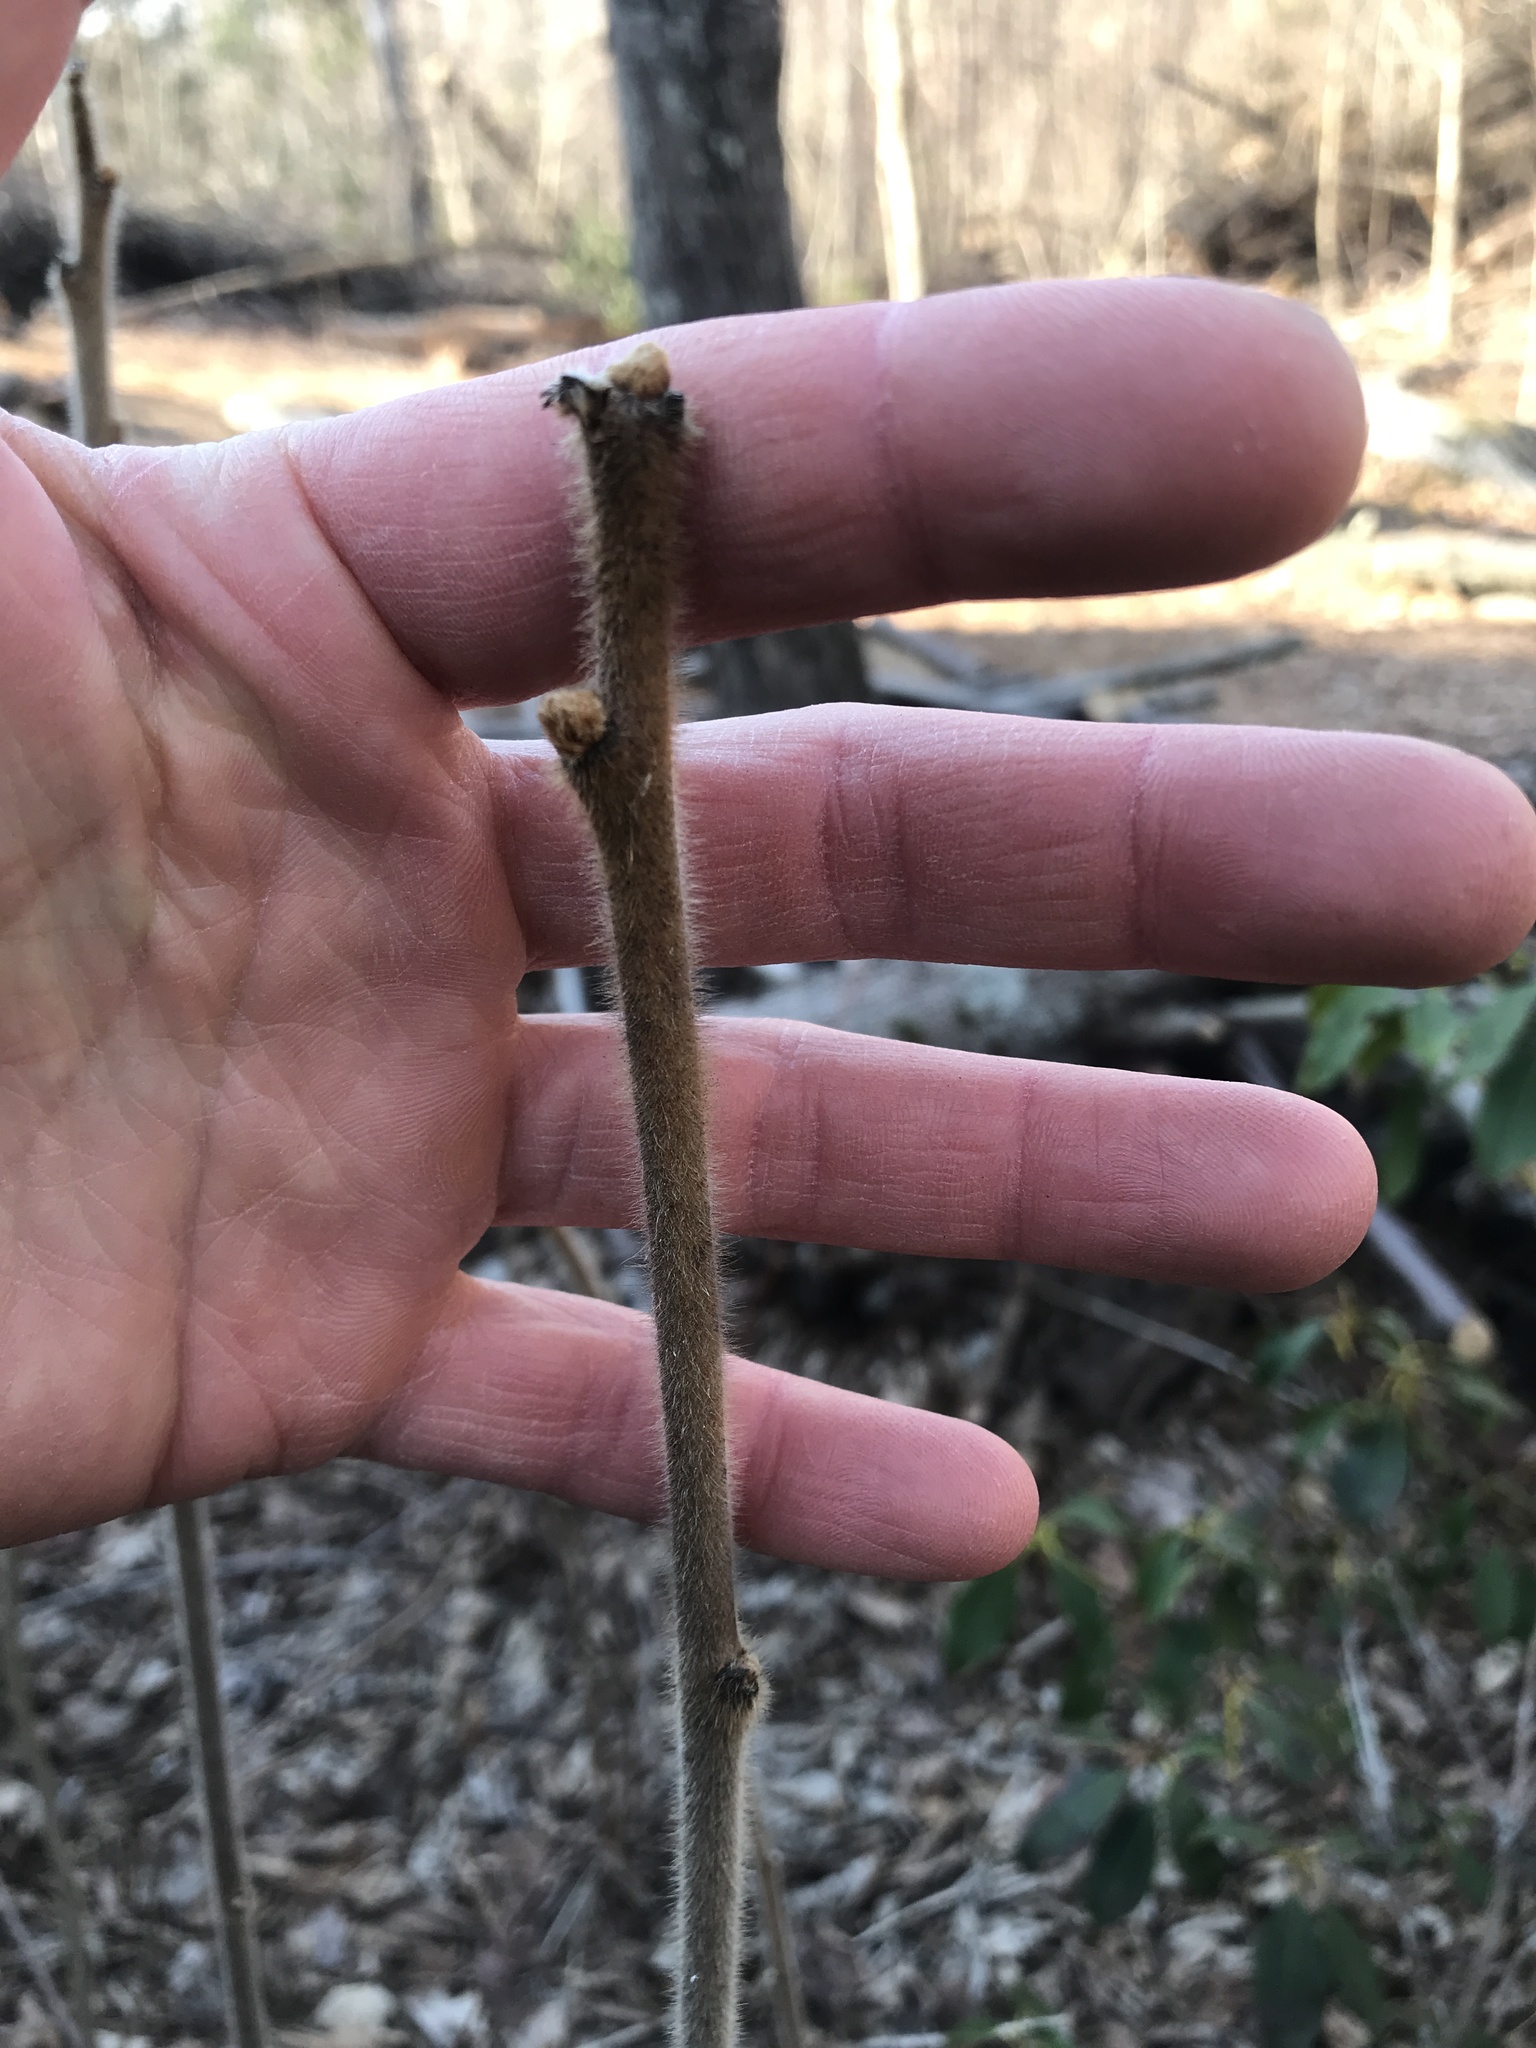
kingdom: Plantae
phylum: Tracheophyta
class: Magnoliopsida
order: Sapindales
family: Anacardiaceae
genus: Rhus
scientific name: Rhus typhina
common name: Staghorn sumac
